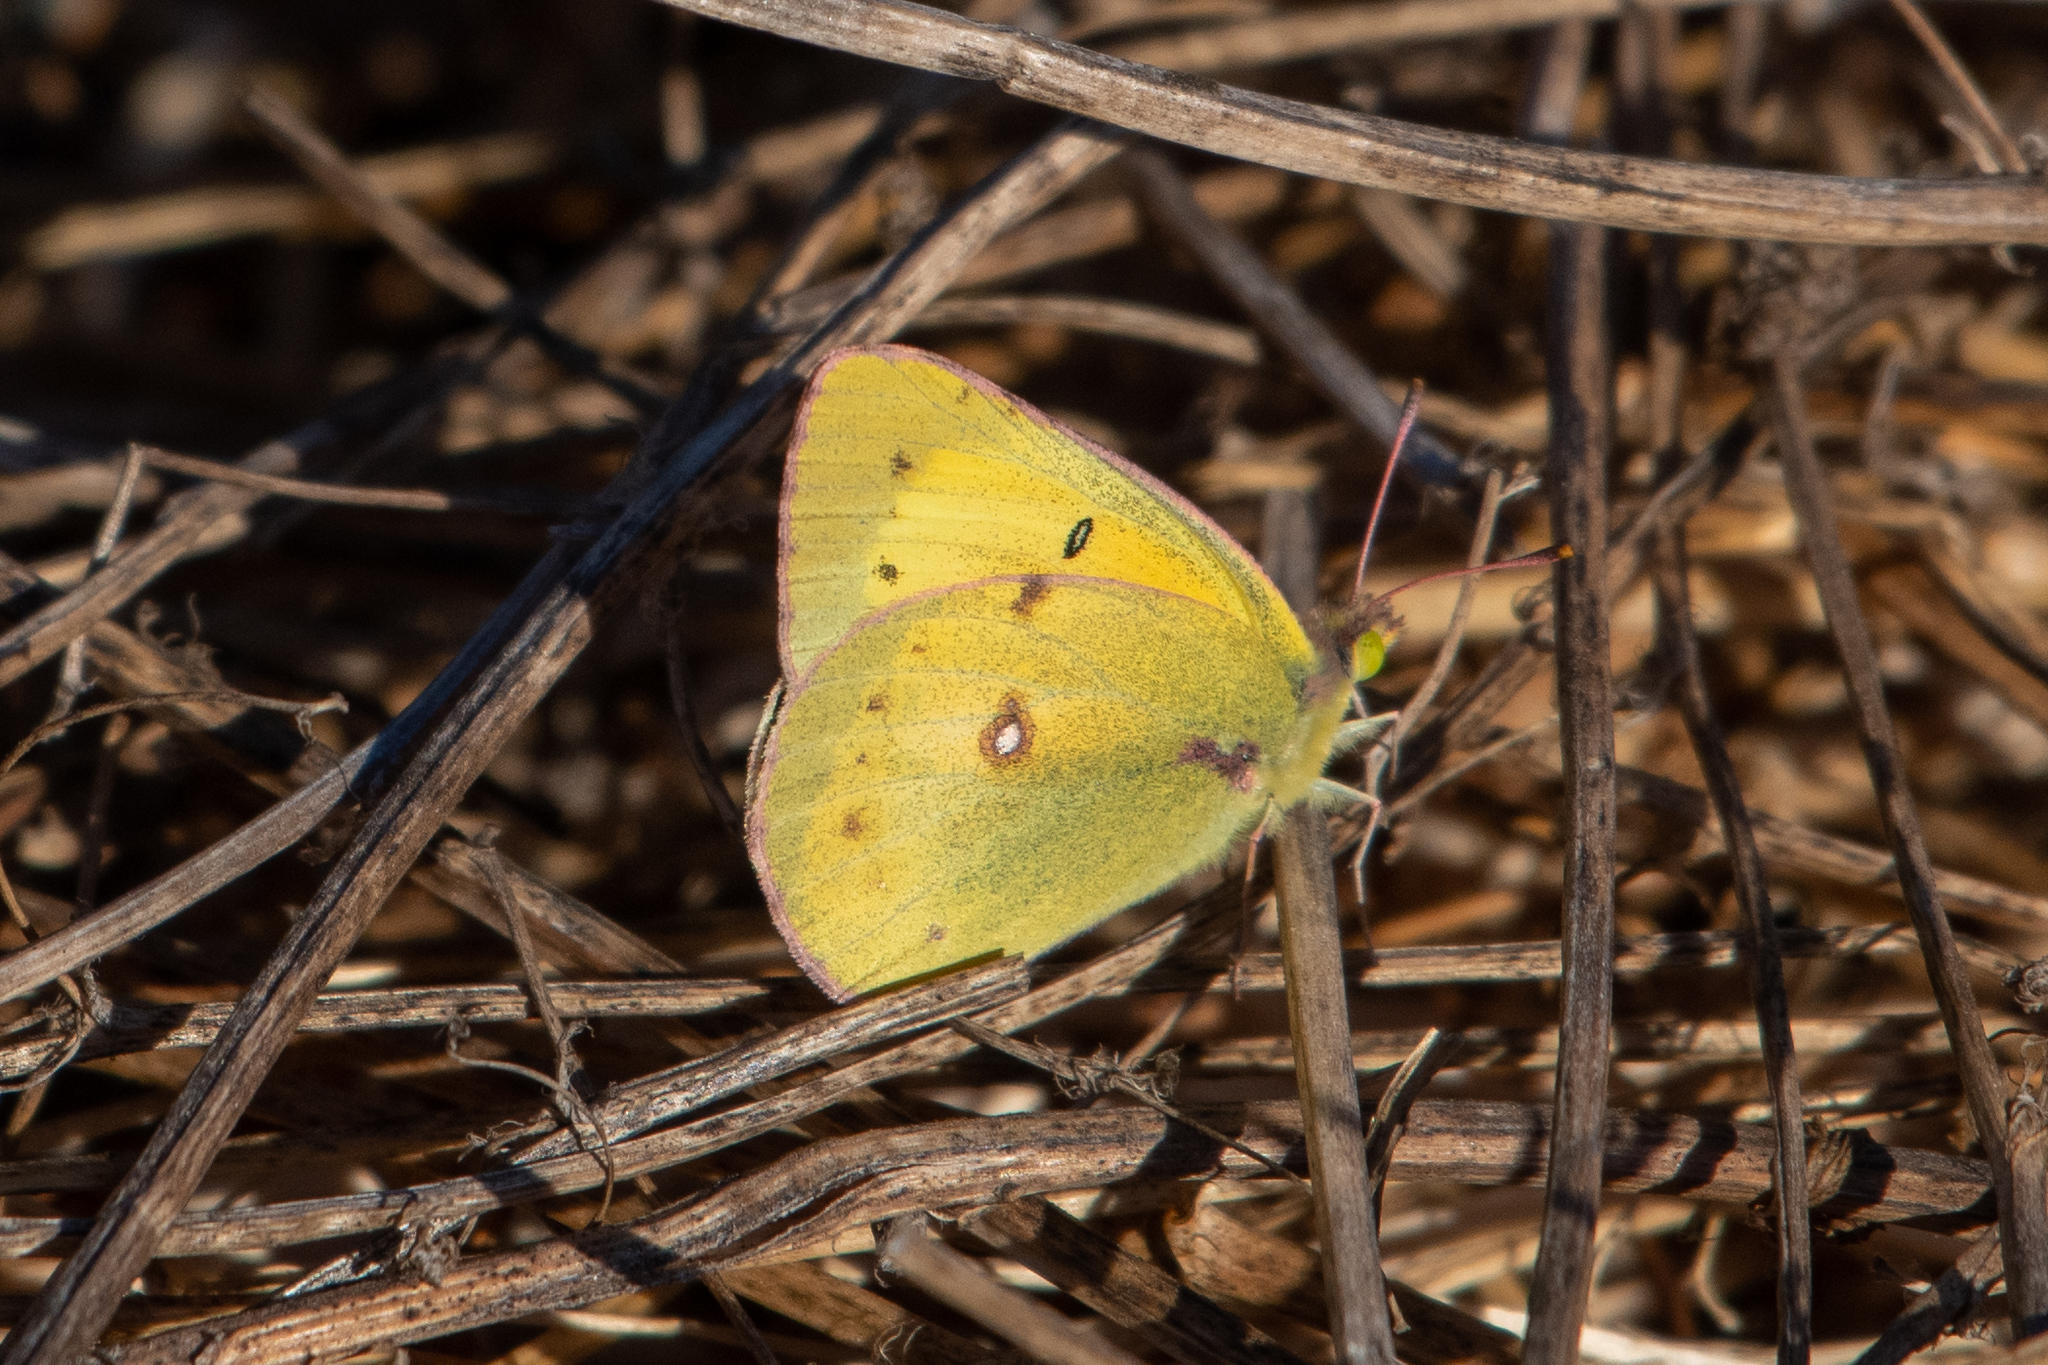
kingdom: Animalia
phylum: Arthropoda
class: Insecta
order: Lepidoptera
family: Pieridae
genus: Colias
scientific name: Colias eurytheme
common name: Alfalfa butterfly
